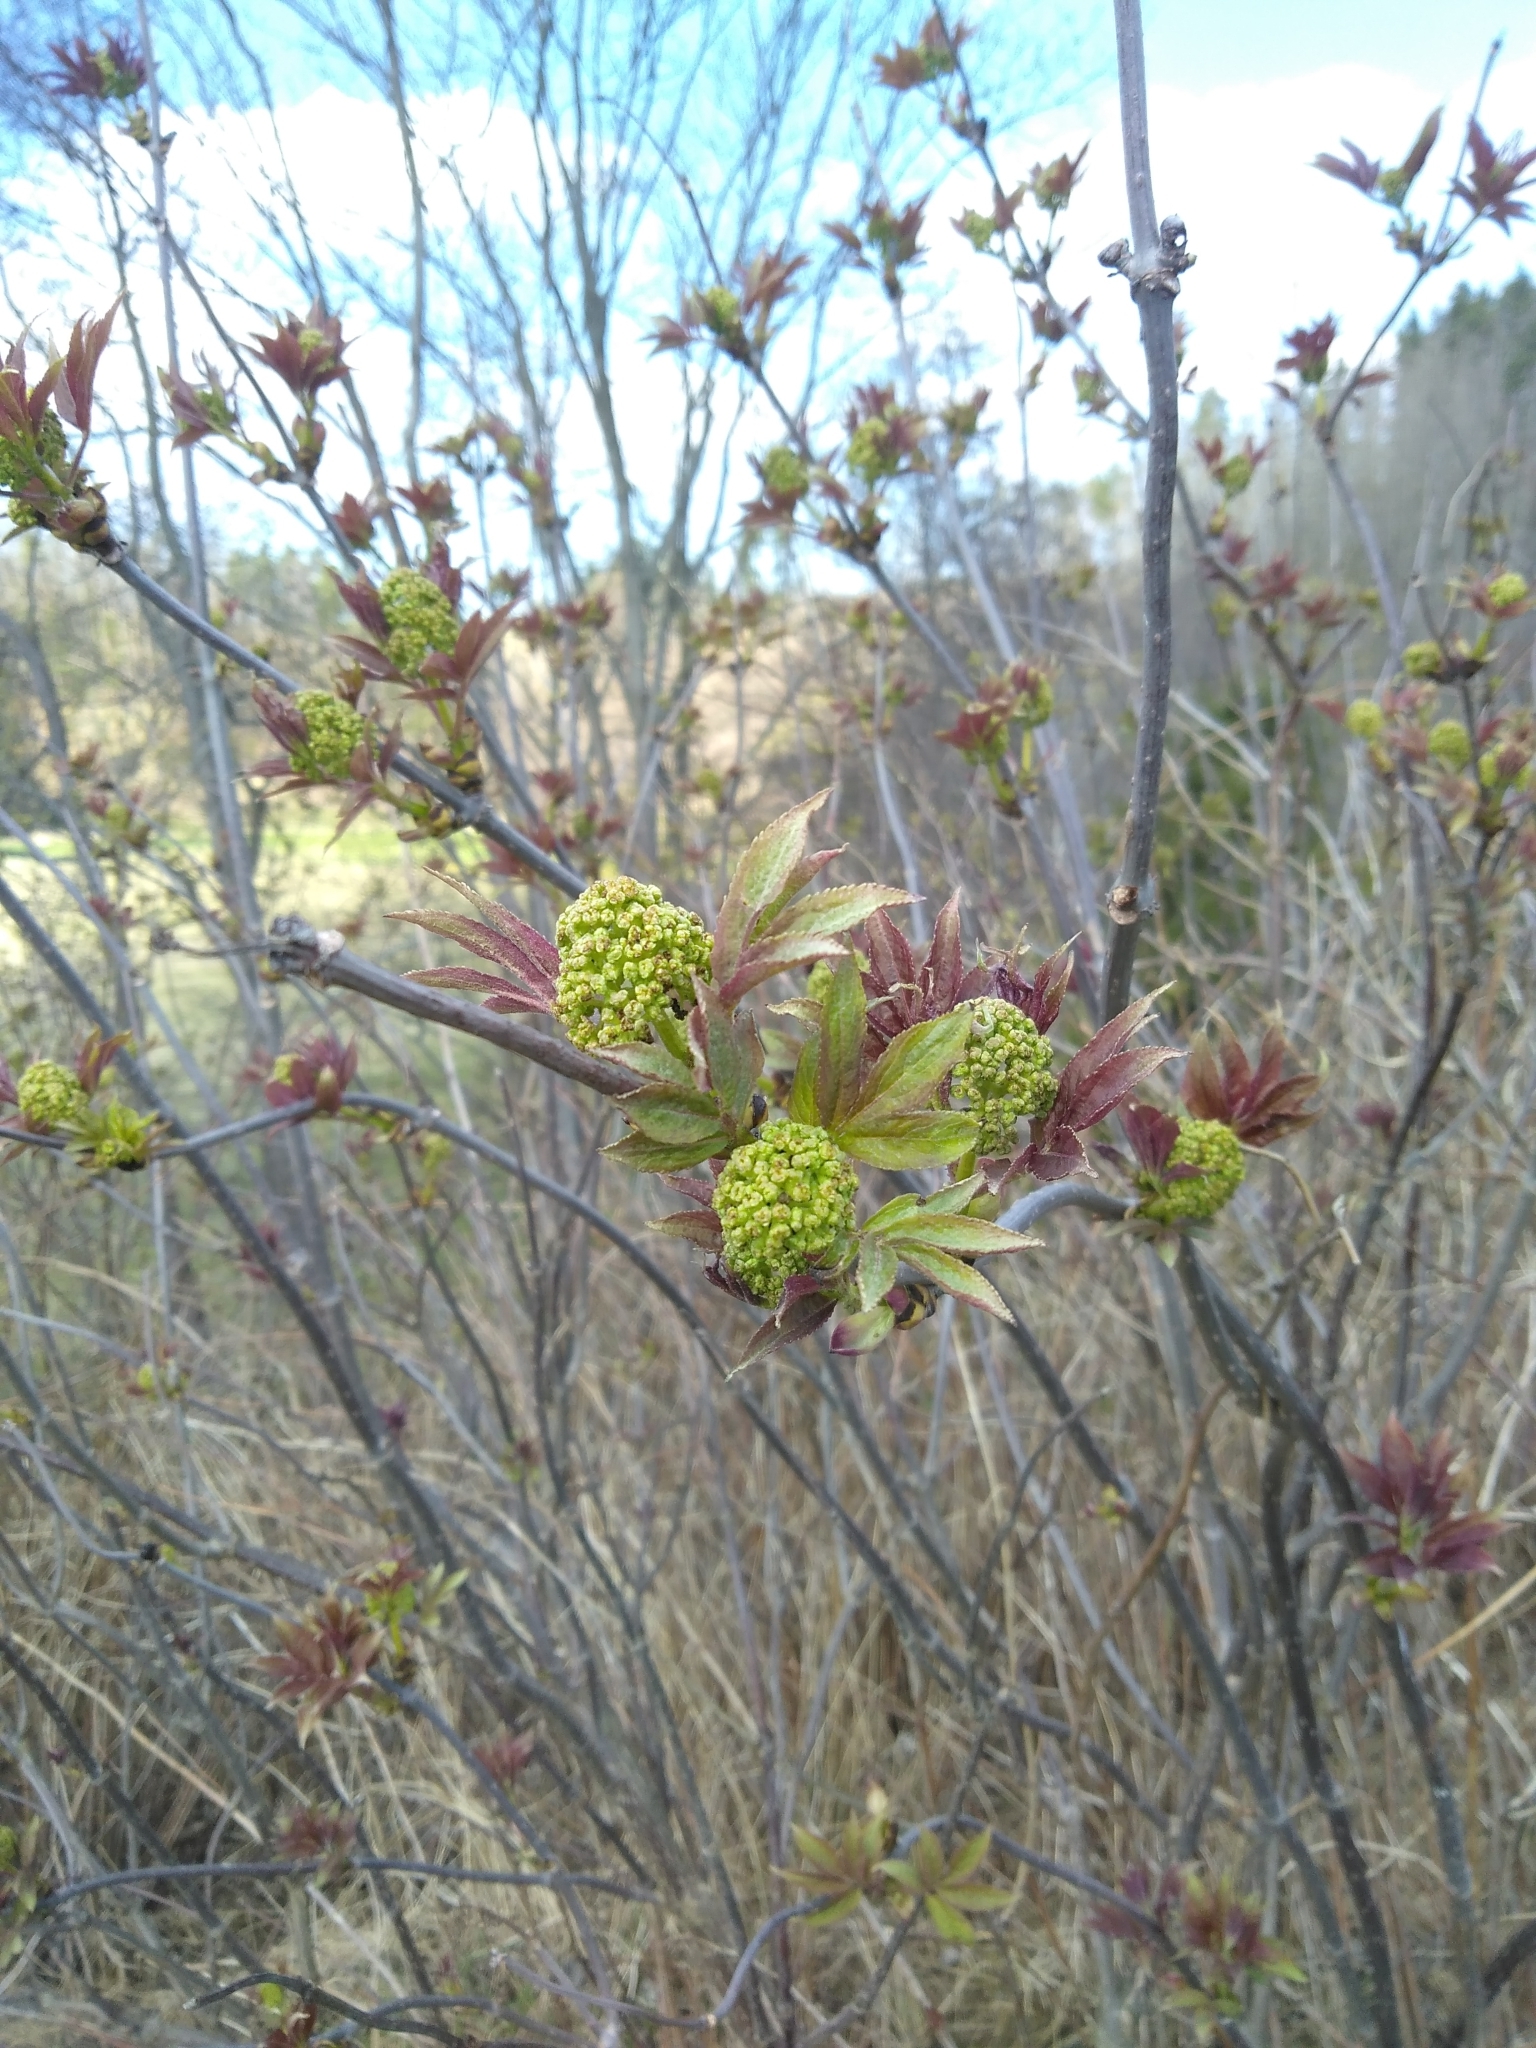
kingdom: Plantae
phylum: Tracheophyta
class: Magnoliopsida
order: Dipsacales
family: Viburnaceae
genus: Sambucus
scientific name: Sambucus racemosa
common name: Red-berried elder
